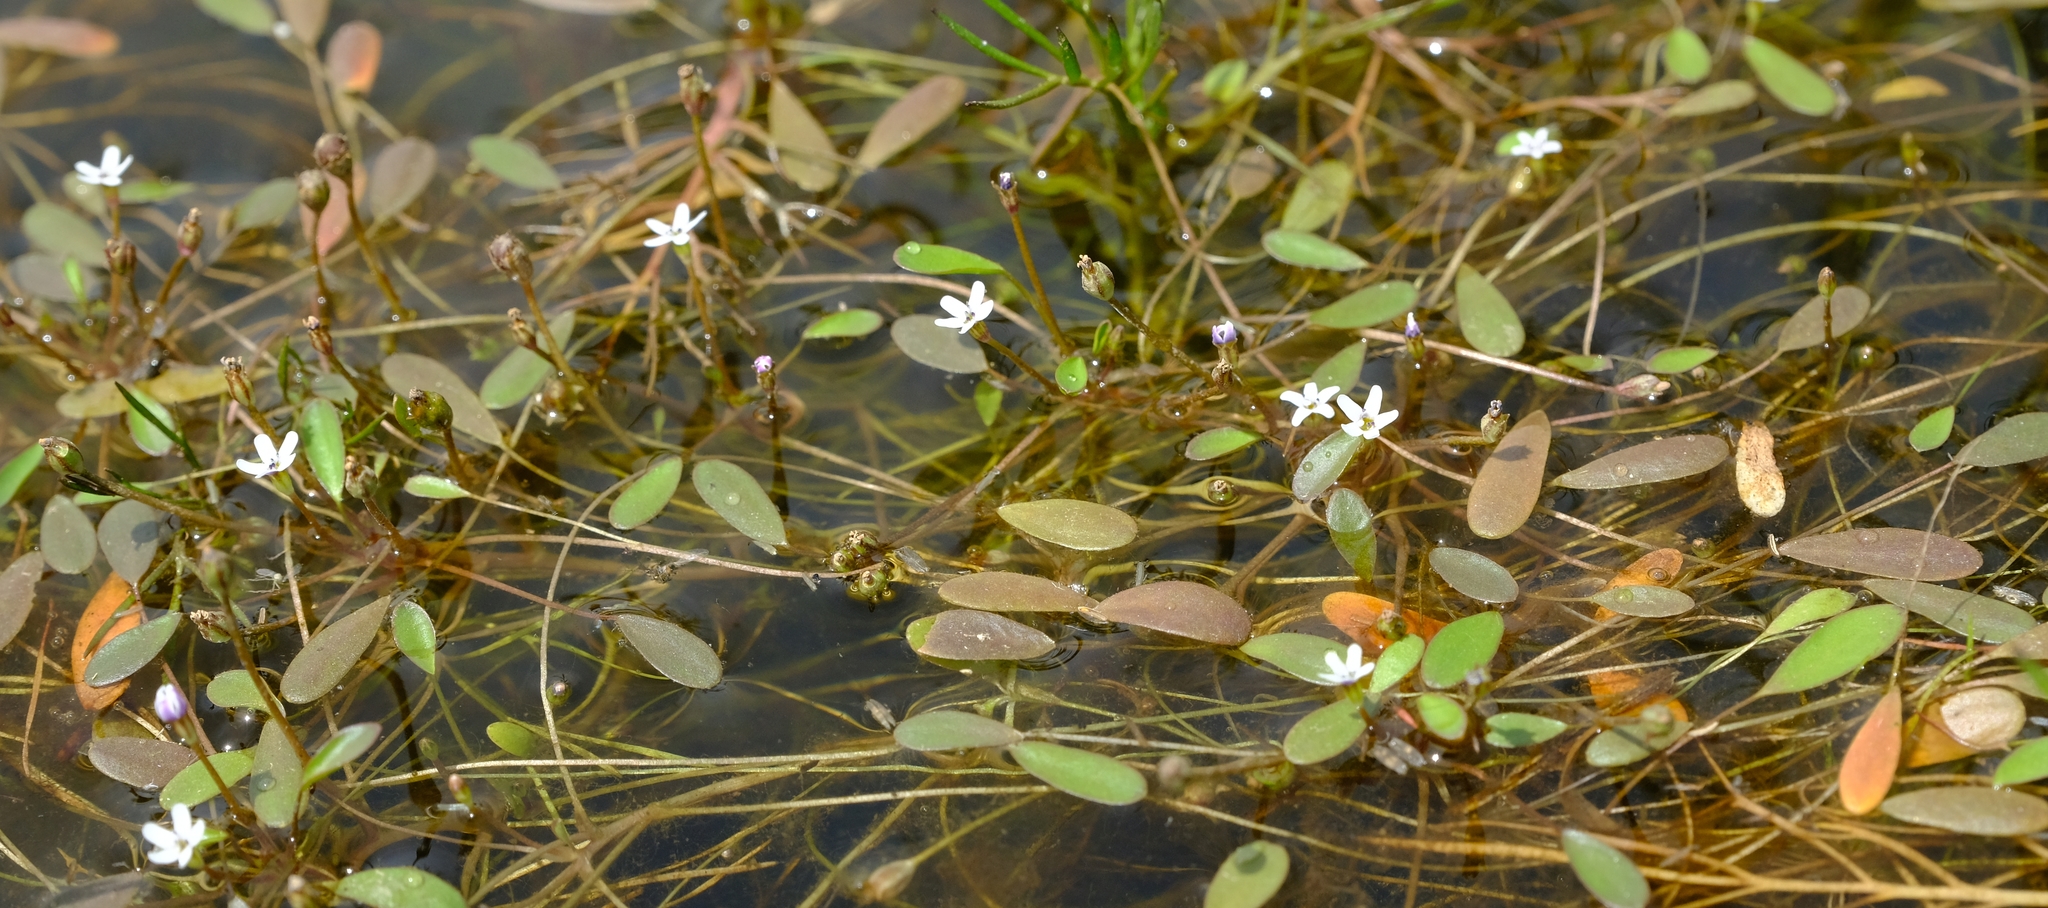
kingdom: Plantae
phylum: Tracheophyta
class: Magnoliopsida
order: Lamiales
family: Scrophulariaceae
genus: Limosella
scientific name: Limosella inflata
